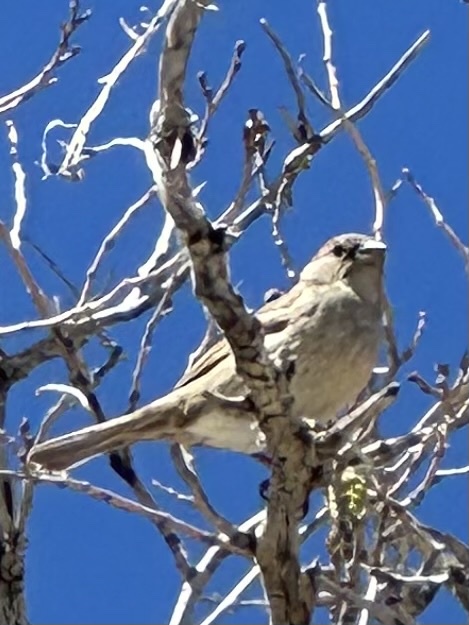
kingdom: Animalia
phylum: Chordata
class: Aves
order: Passeriformes
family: Passeridae
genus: Passer
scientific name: Passer domesticus
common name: House sparrow
